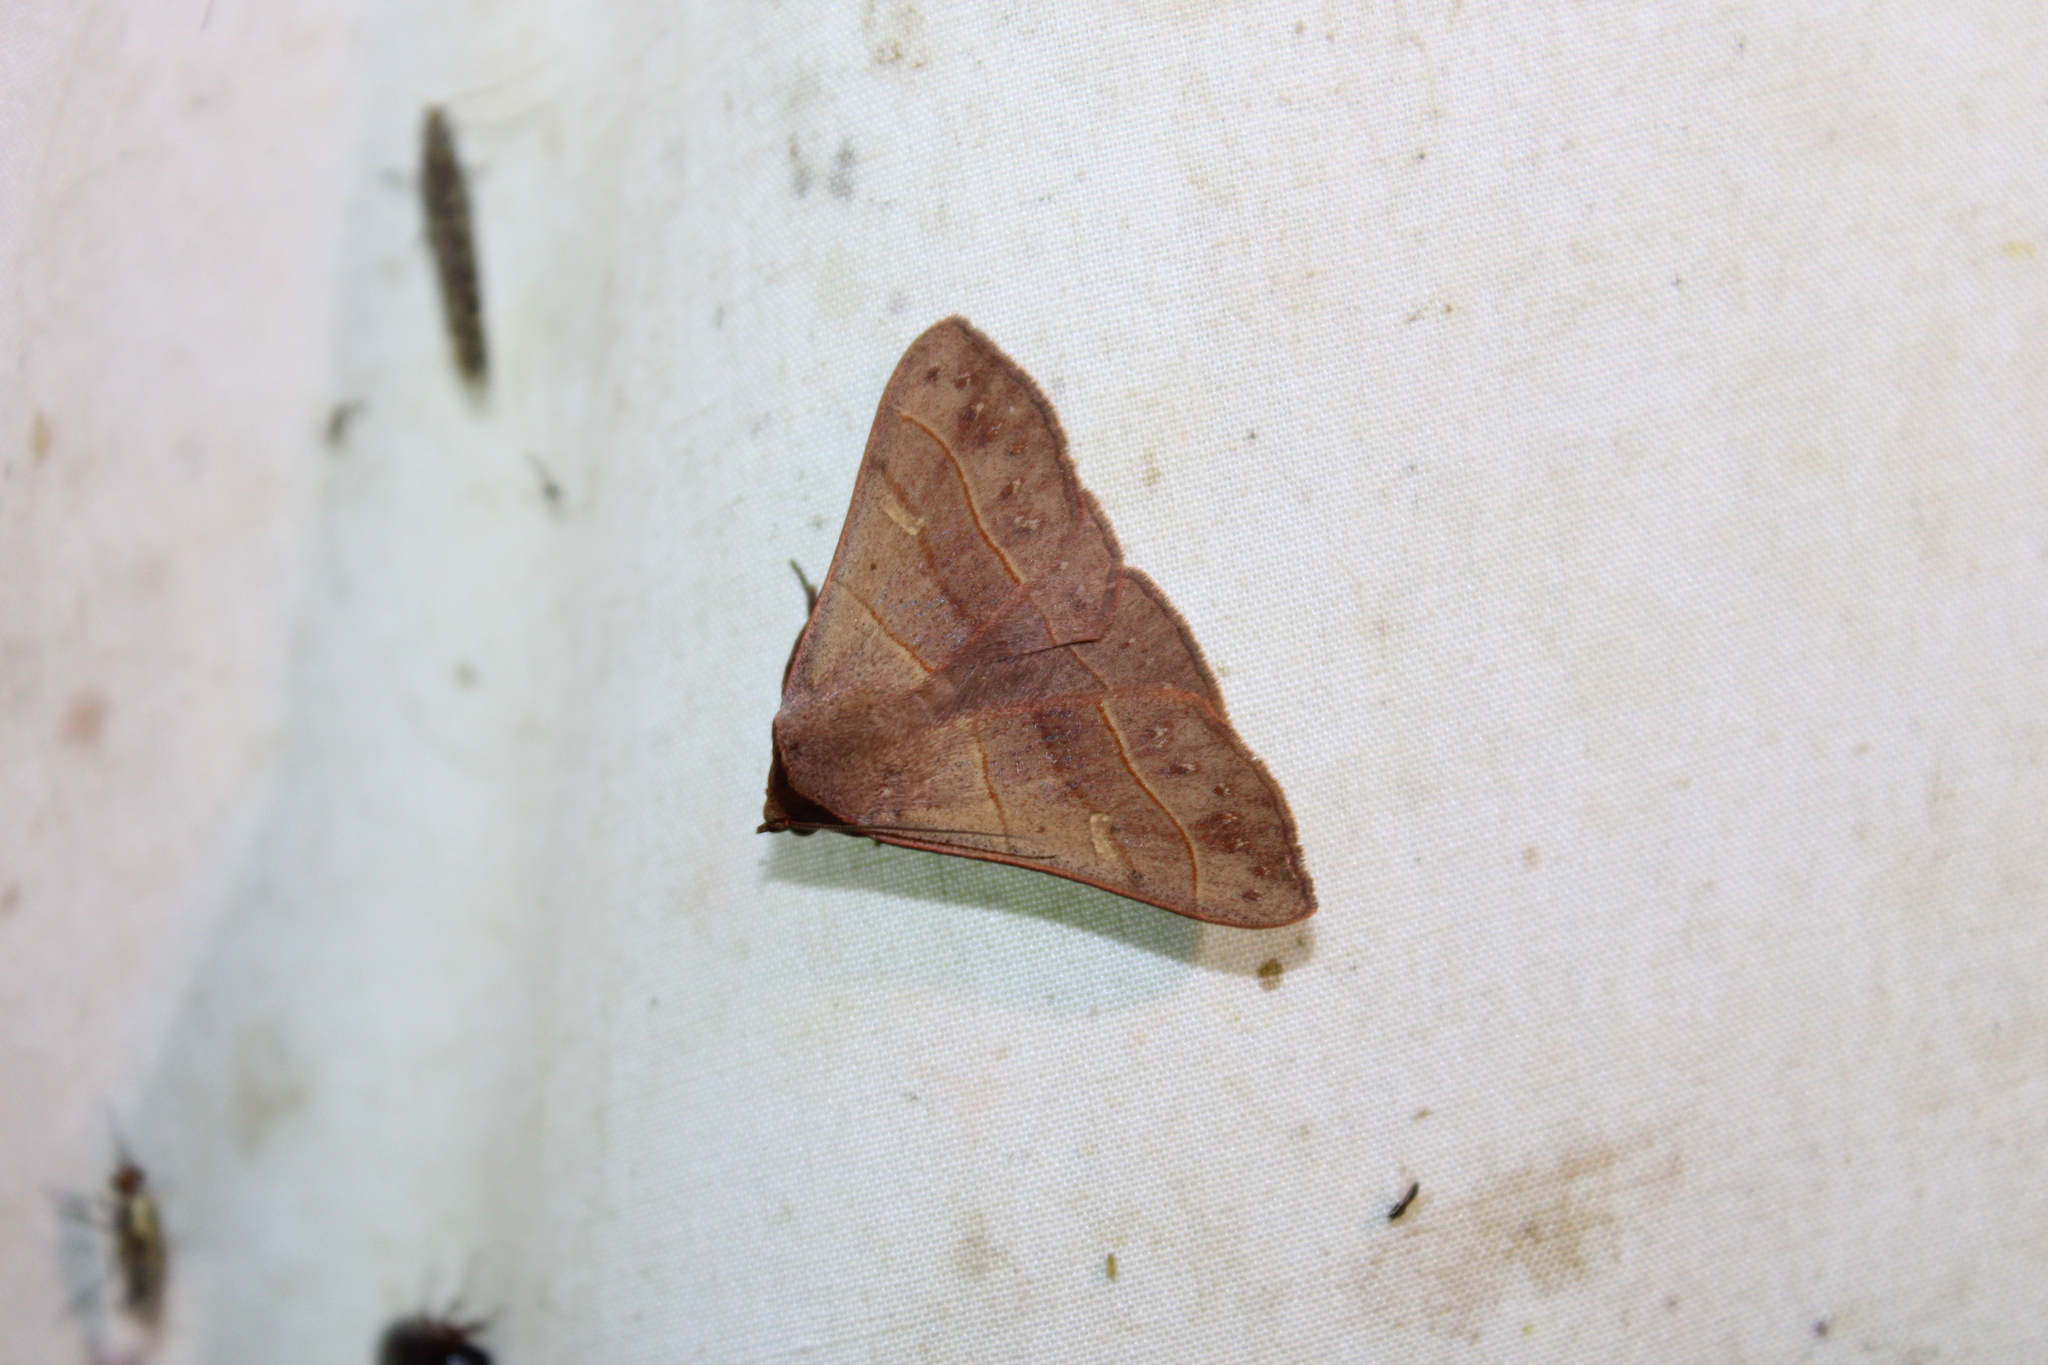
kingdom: Animalia
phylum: Arthropoda
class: Insecta
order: Lepidoptera
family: Erebidae
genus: Panopoda
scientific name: Panopoda rufimargo
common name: Red-lined panopoda moth
